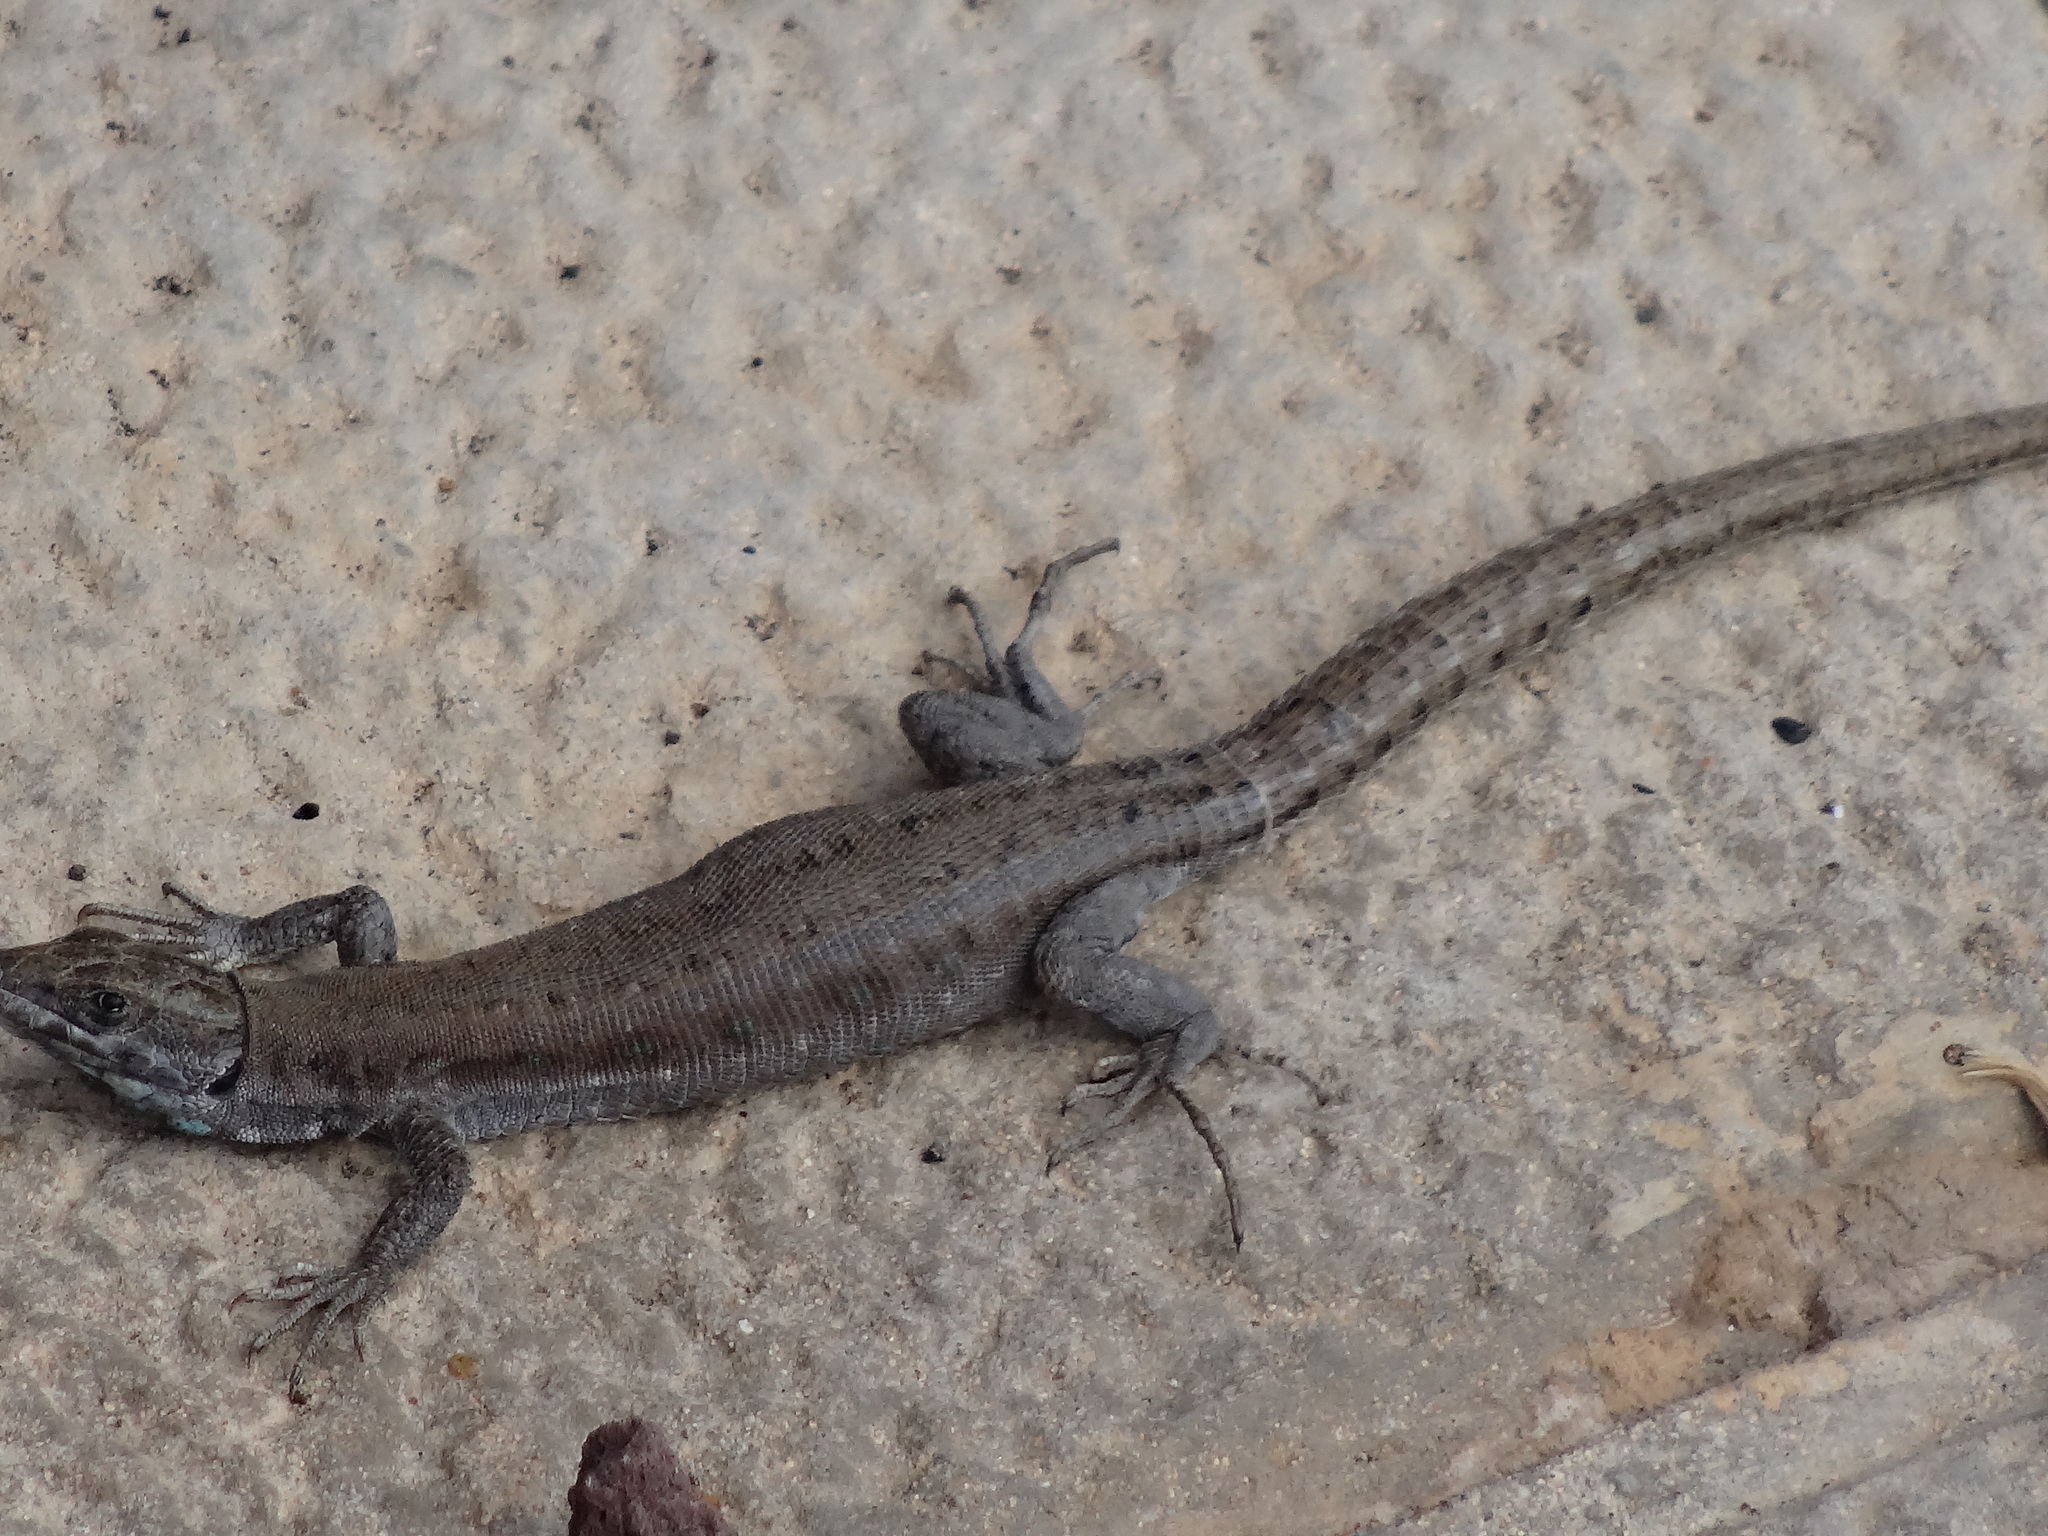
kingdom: Animalia
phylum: Chordata
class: Squamata
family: Lacertidae
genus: Gallotia
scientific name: Gallotia atlantica
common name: Atlantic lizard
